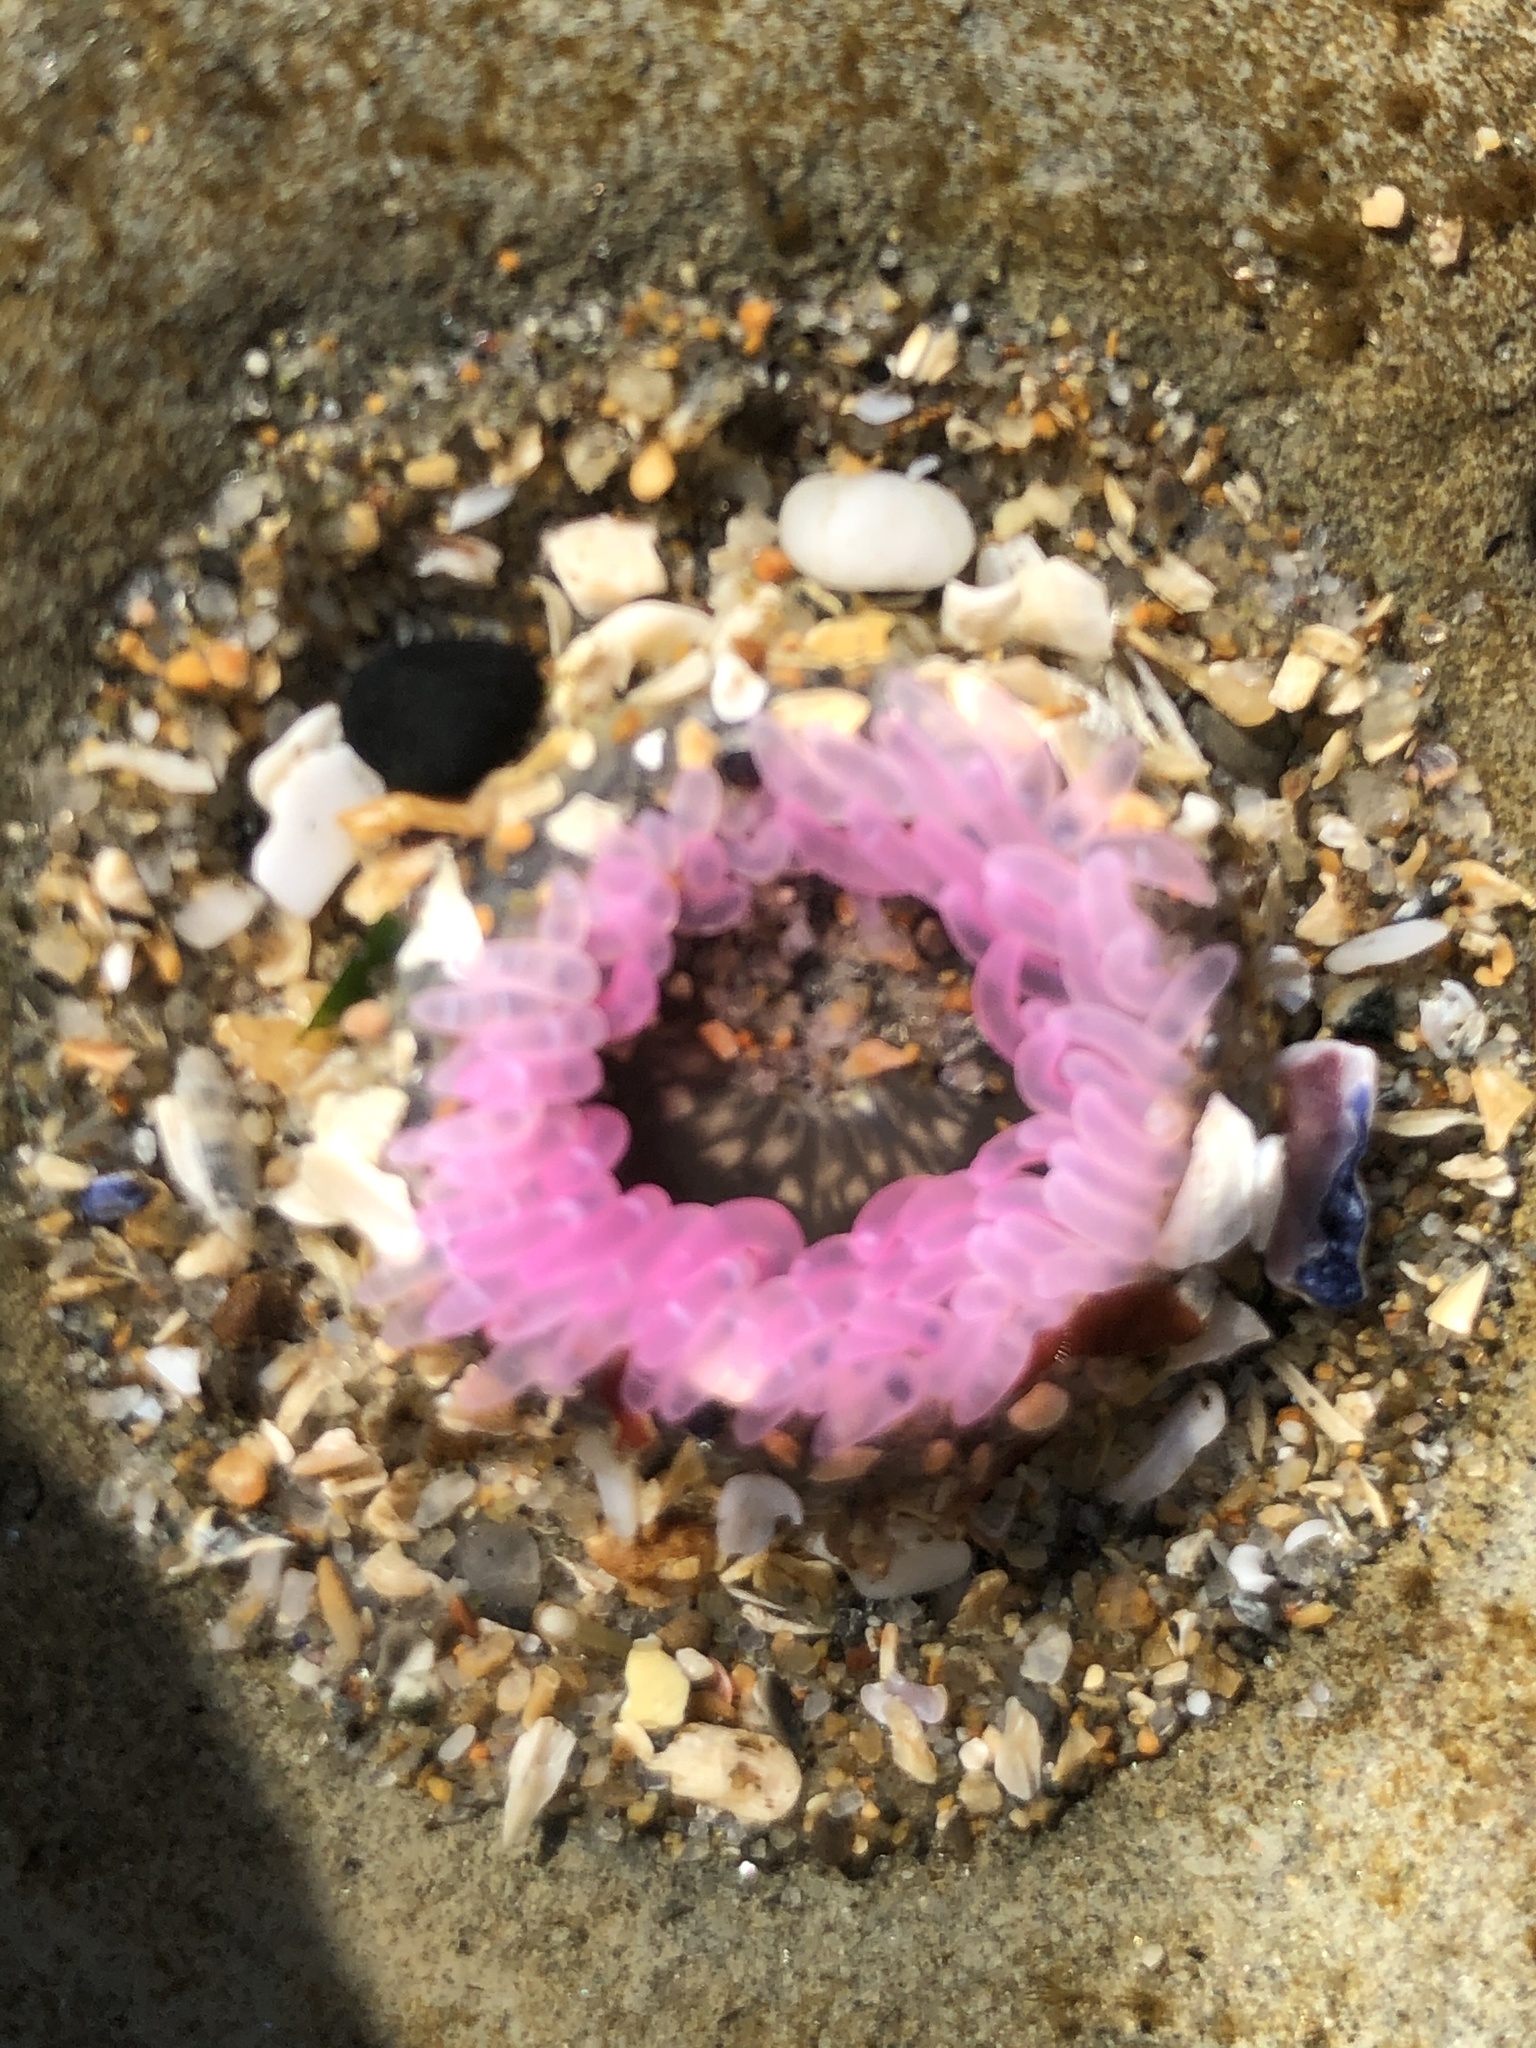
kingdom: Animalia
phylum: Cnidaria
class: Anthozoa
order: Actiniaria
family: Actiniidae
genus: Anthopleura
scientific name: Anthopleura artemisia
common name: Buried sea anemone
